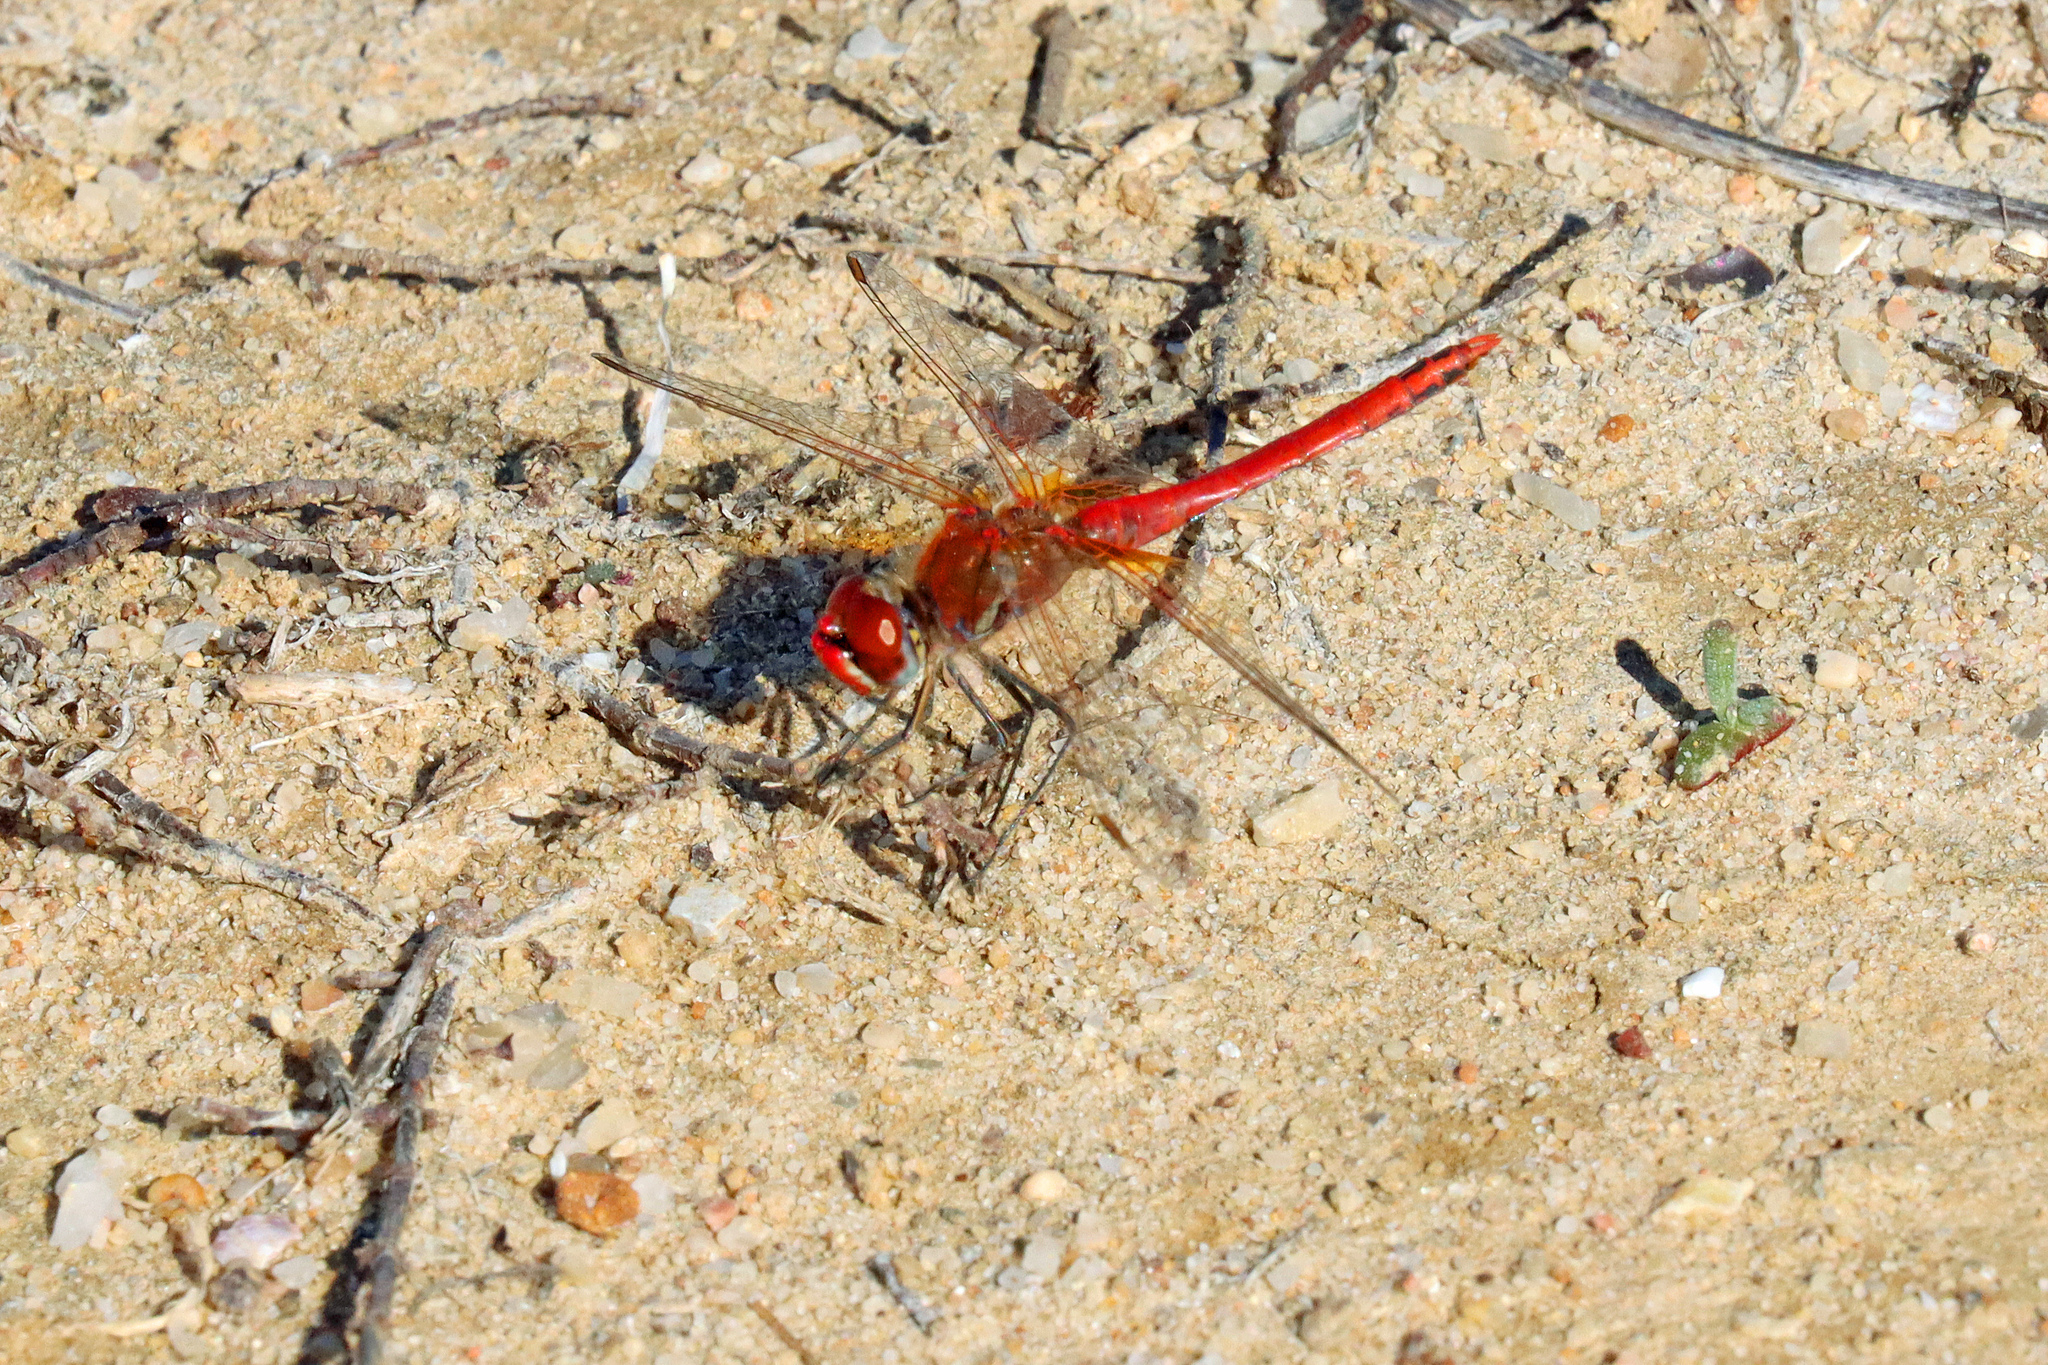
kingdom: Animalia
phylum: Arthropoda
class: Insecta
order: Odonata
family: Libellulidae
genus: Sympetrum
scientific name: Sympetrum fonscolombii
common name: Red-veined darter
